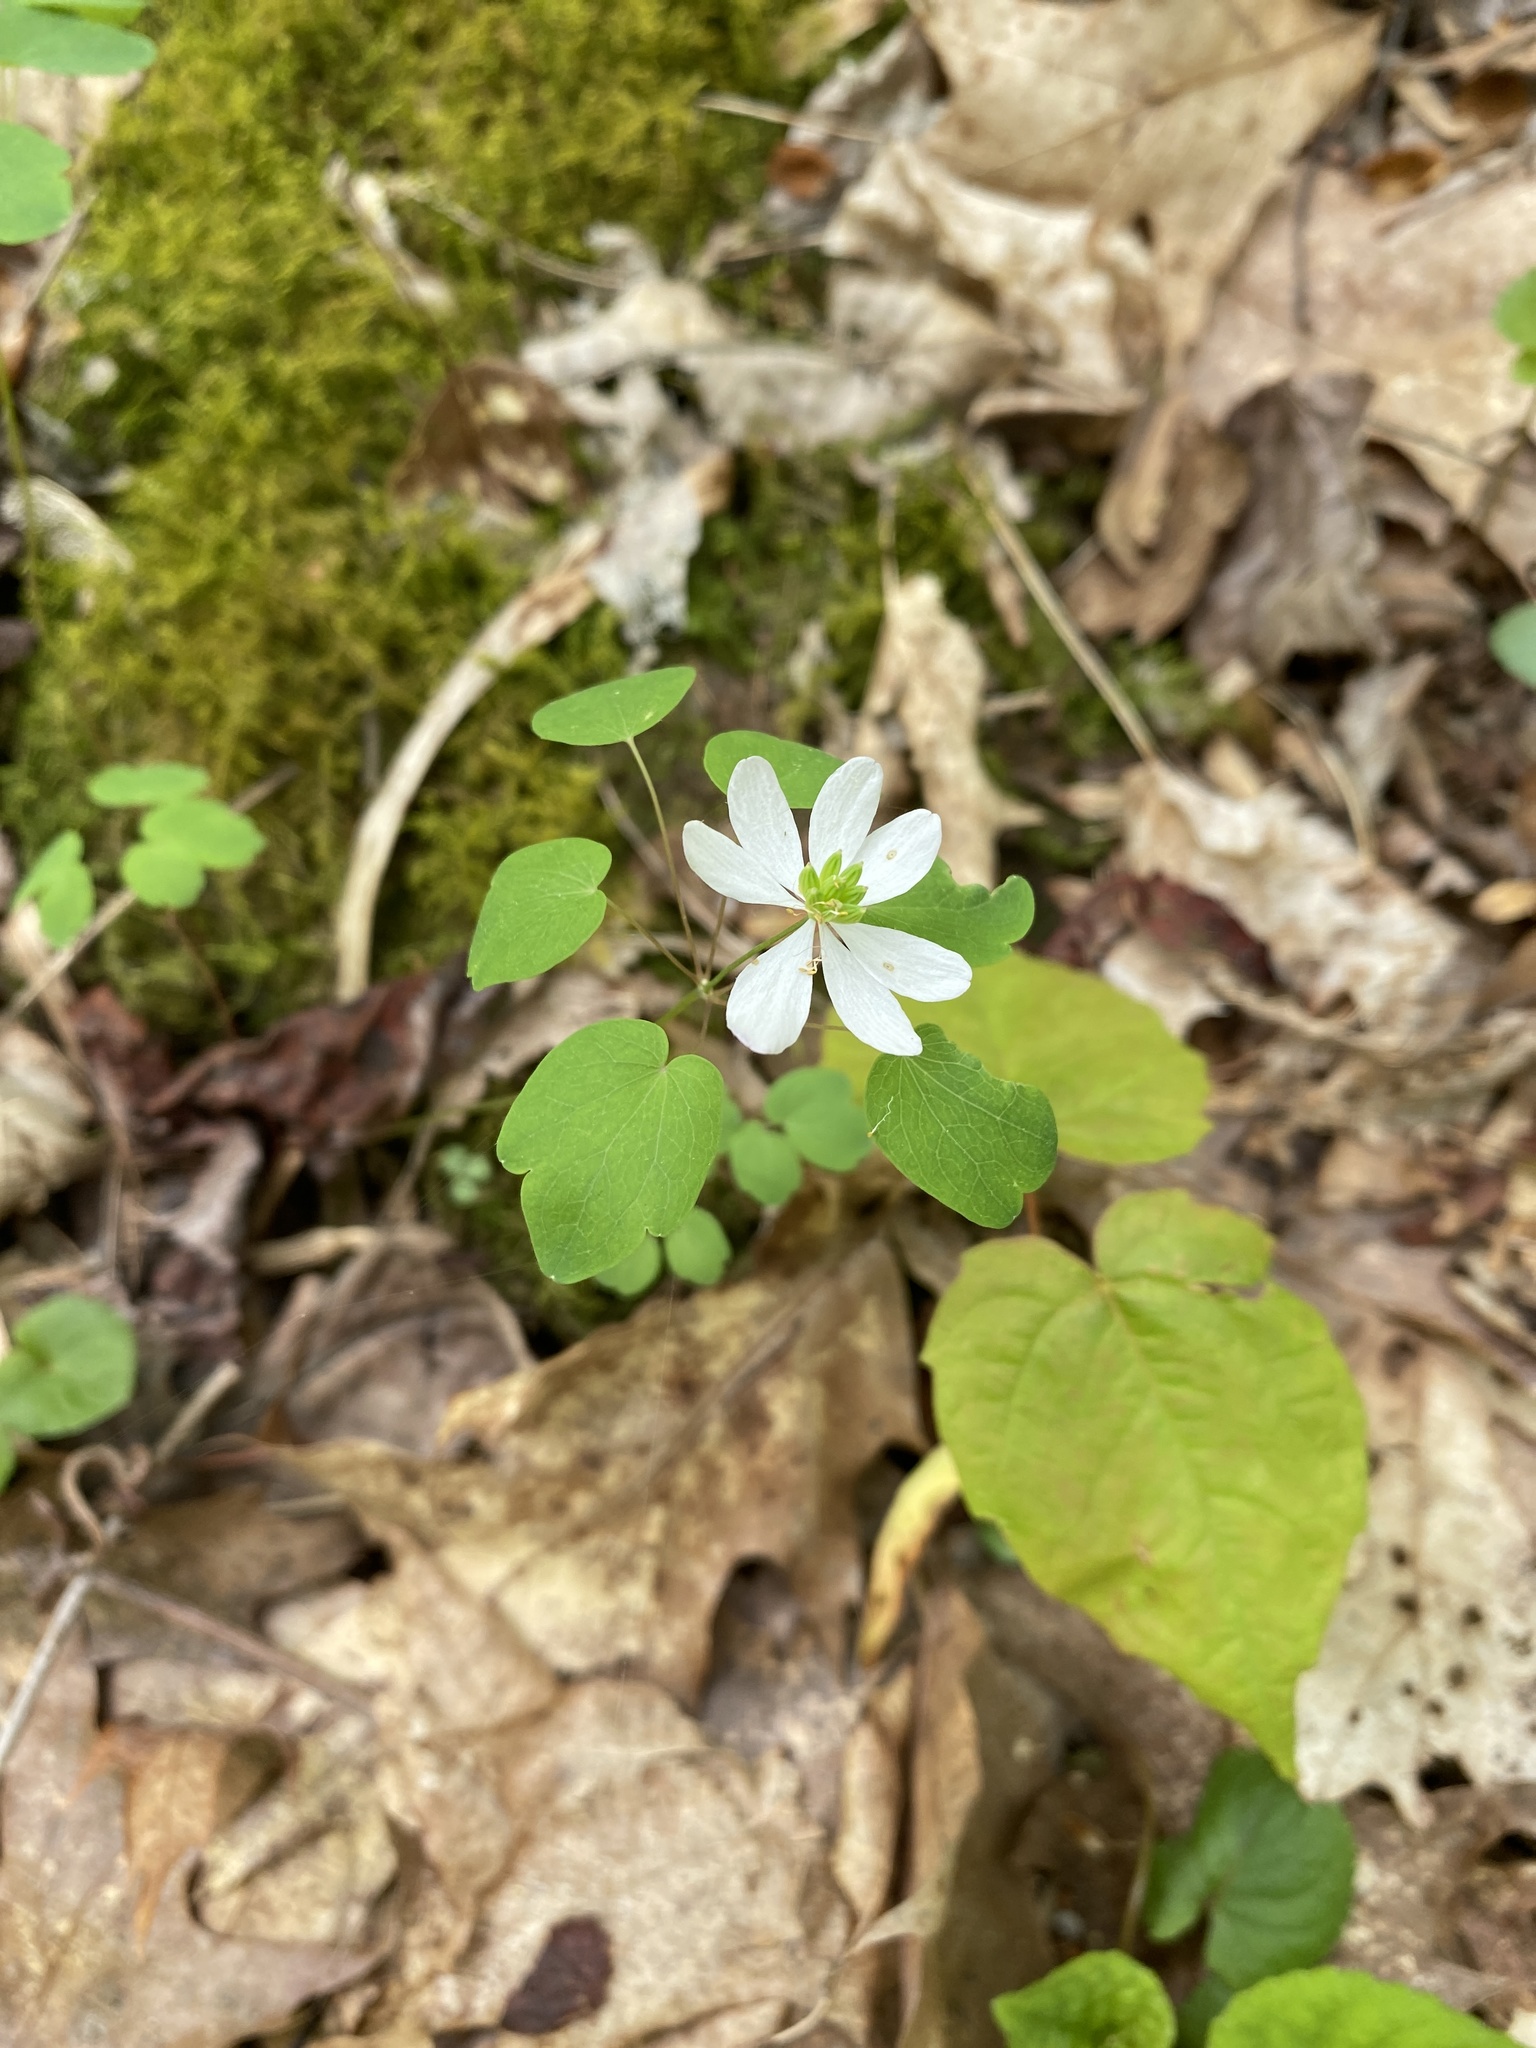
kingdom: Plantae
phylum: Tracheophyta
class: Magnoliopsida
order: Ranunculales
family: Ranunculaceae
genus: Thalictrum
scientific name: Thalictrum thalictroides
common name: Rue-anemone
